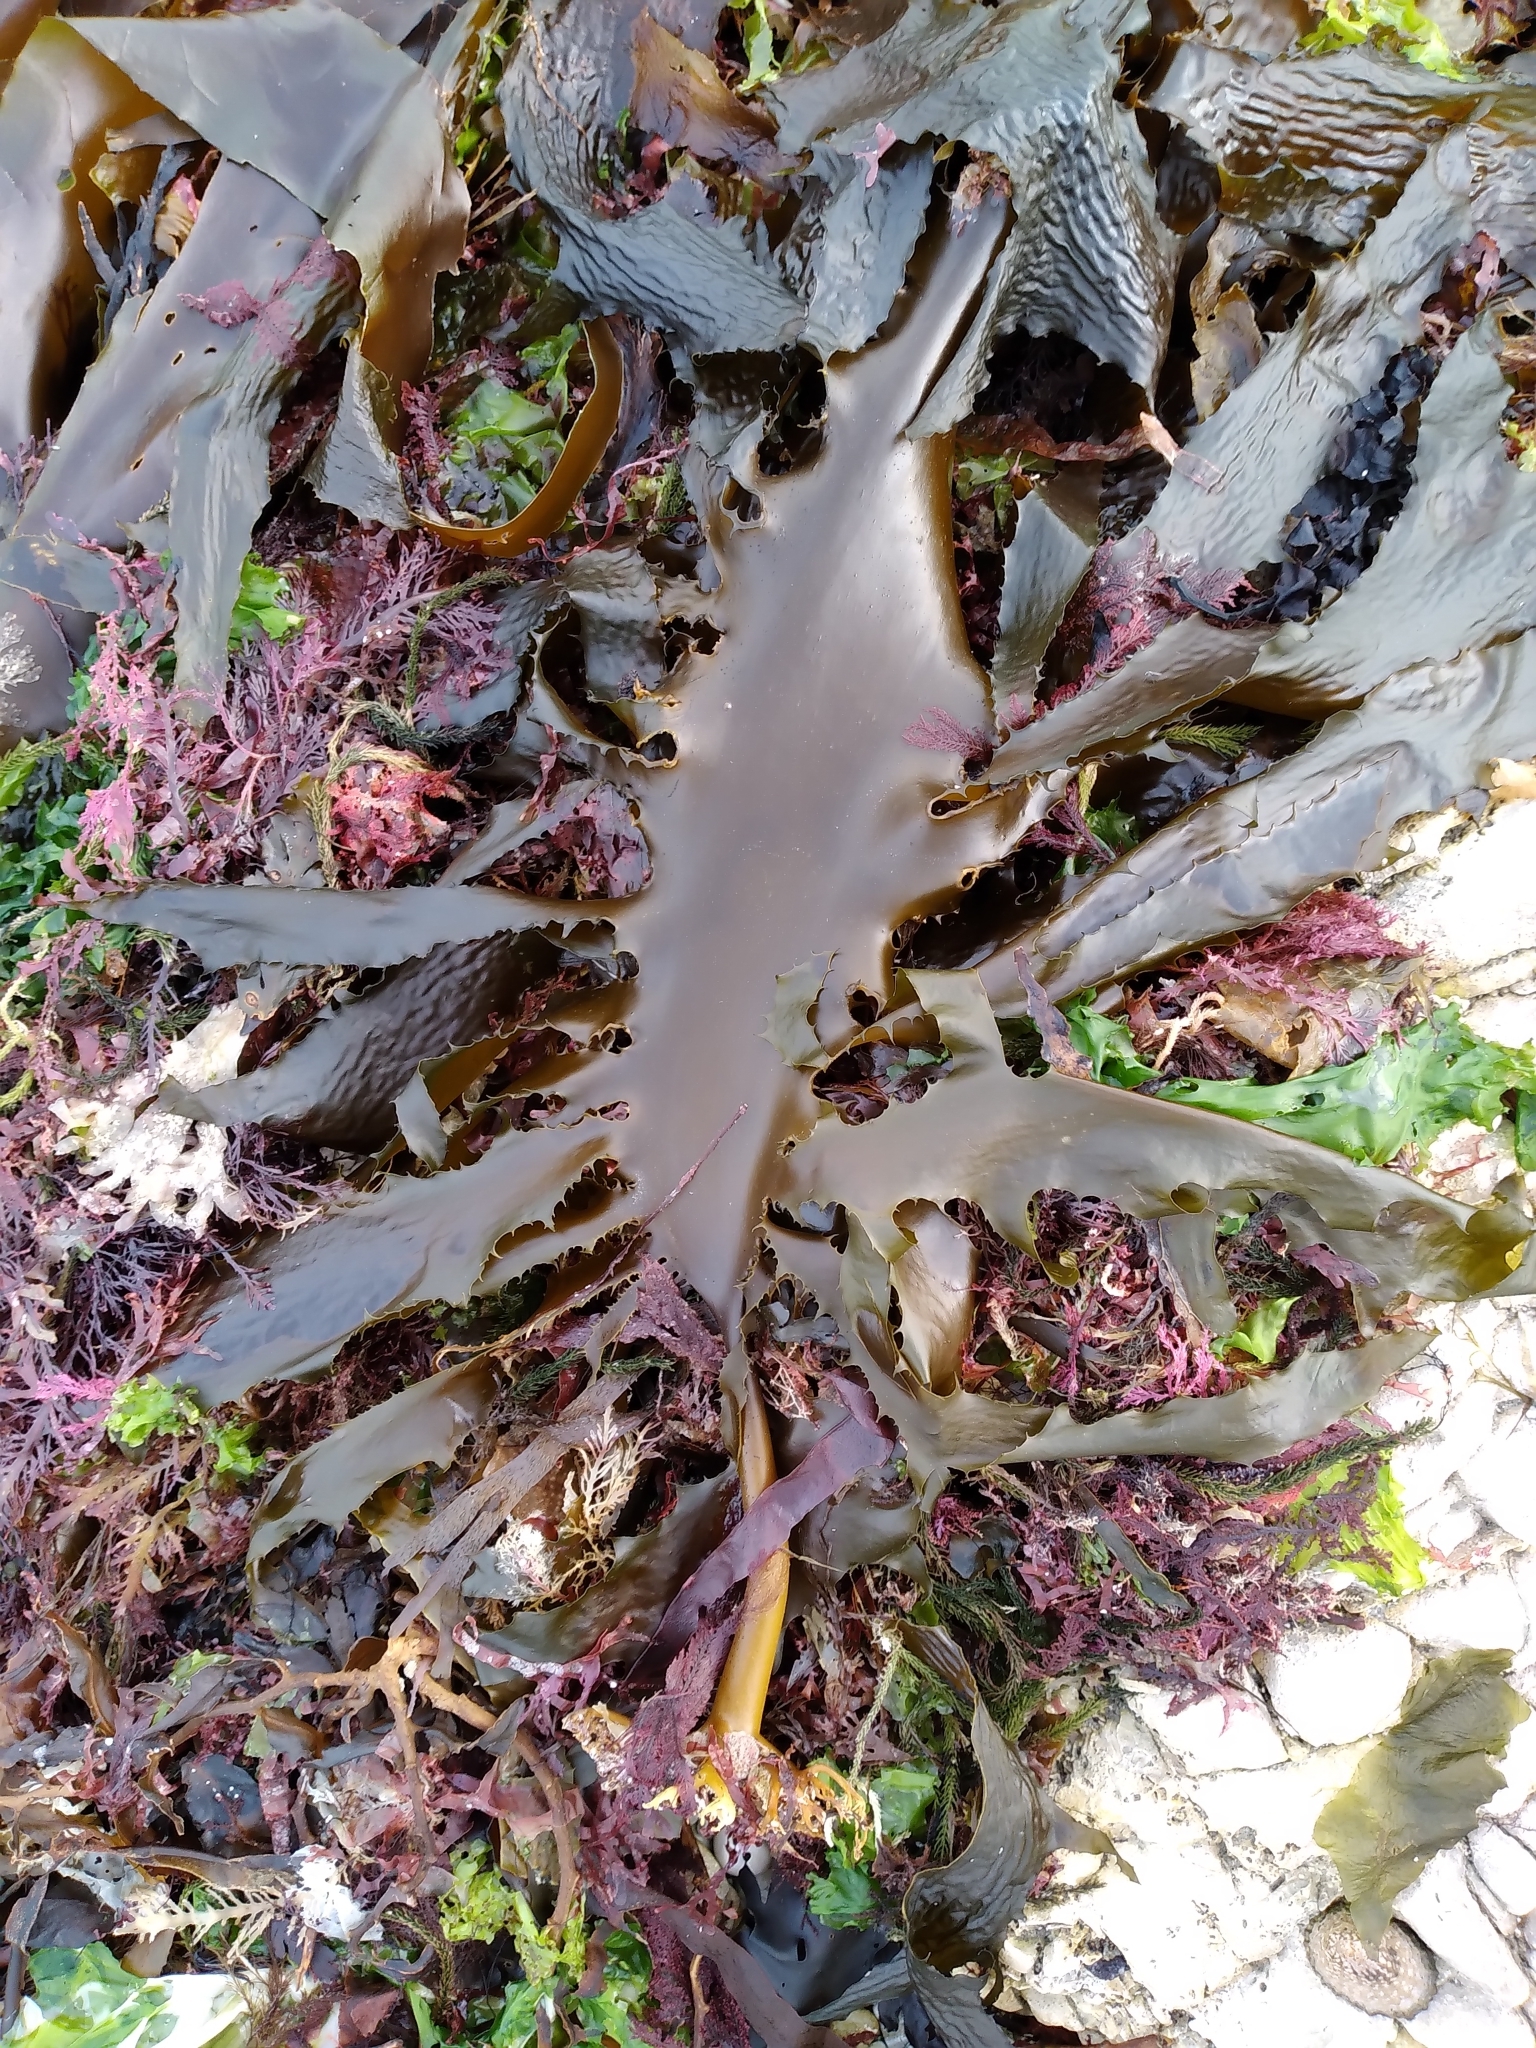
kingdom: Chromista
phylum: Ochrophyta
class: Phaeophyceae
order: Laminariales
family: Lessoniaceae
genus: Ecklonia
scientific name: Ecklonia radiata
